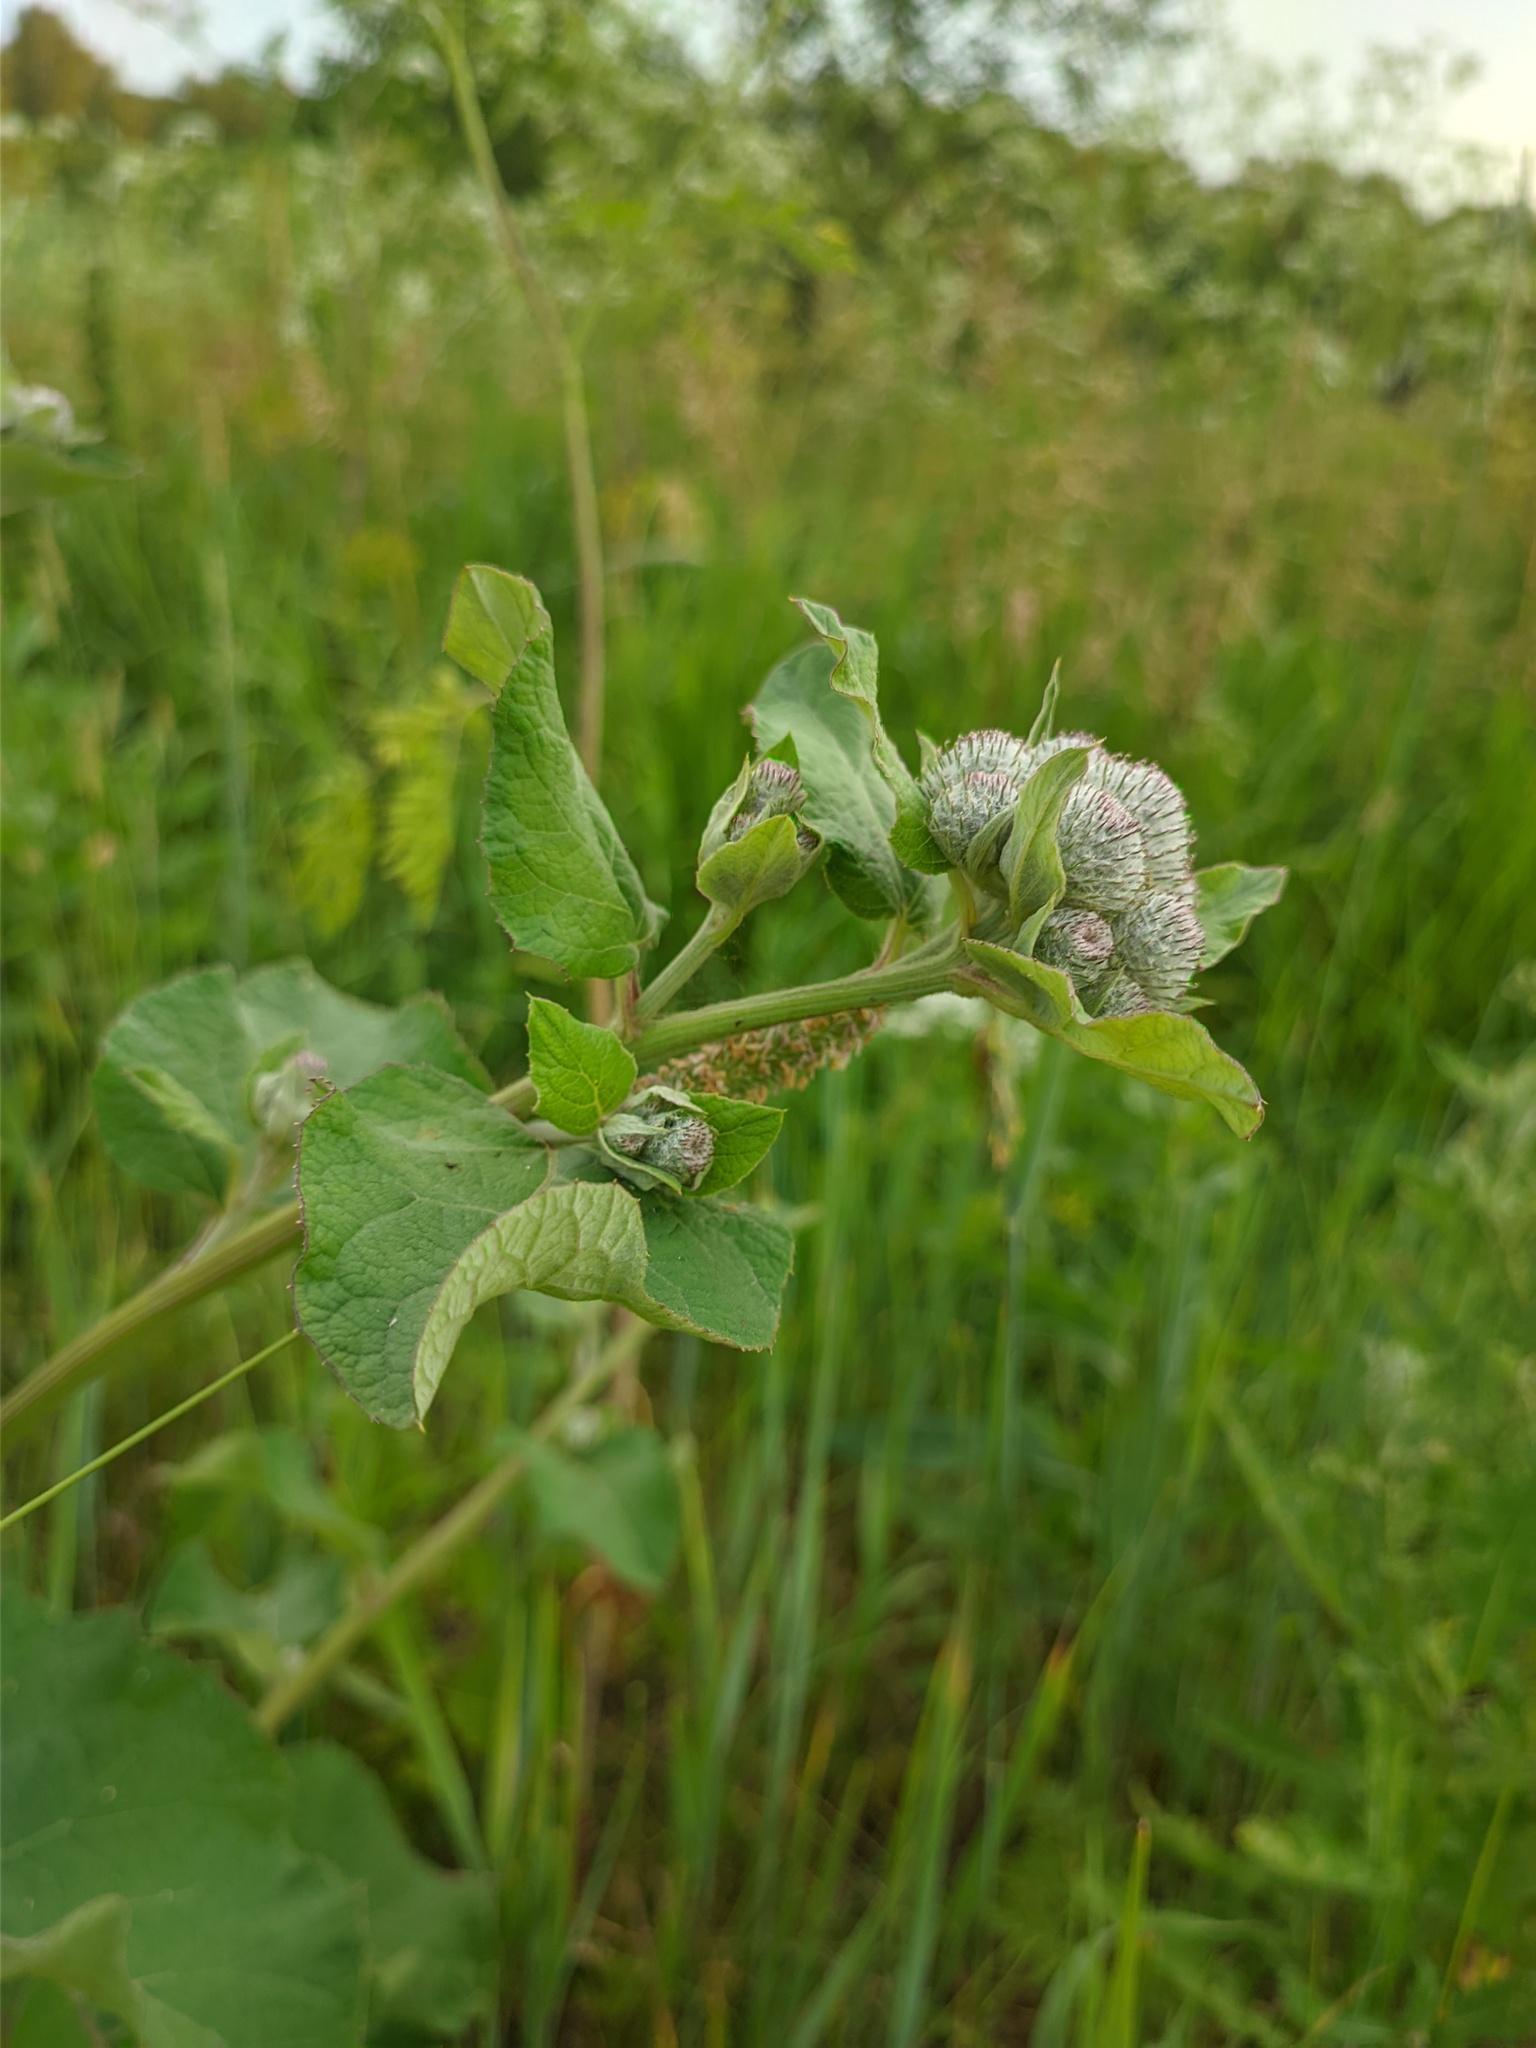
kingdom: Plantae
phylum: Tracheophyta
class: Magnoliopsida
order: Asterales
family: Asteraceae
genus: Arctium
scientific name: Arctium tomentosum
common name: Woolly burdock
